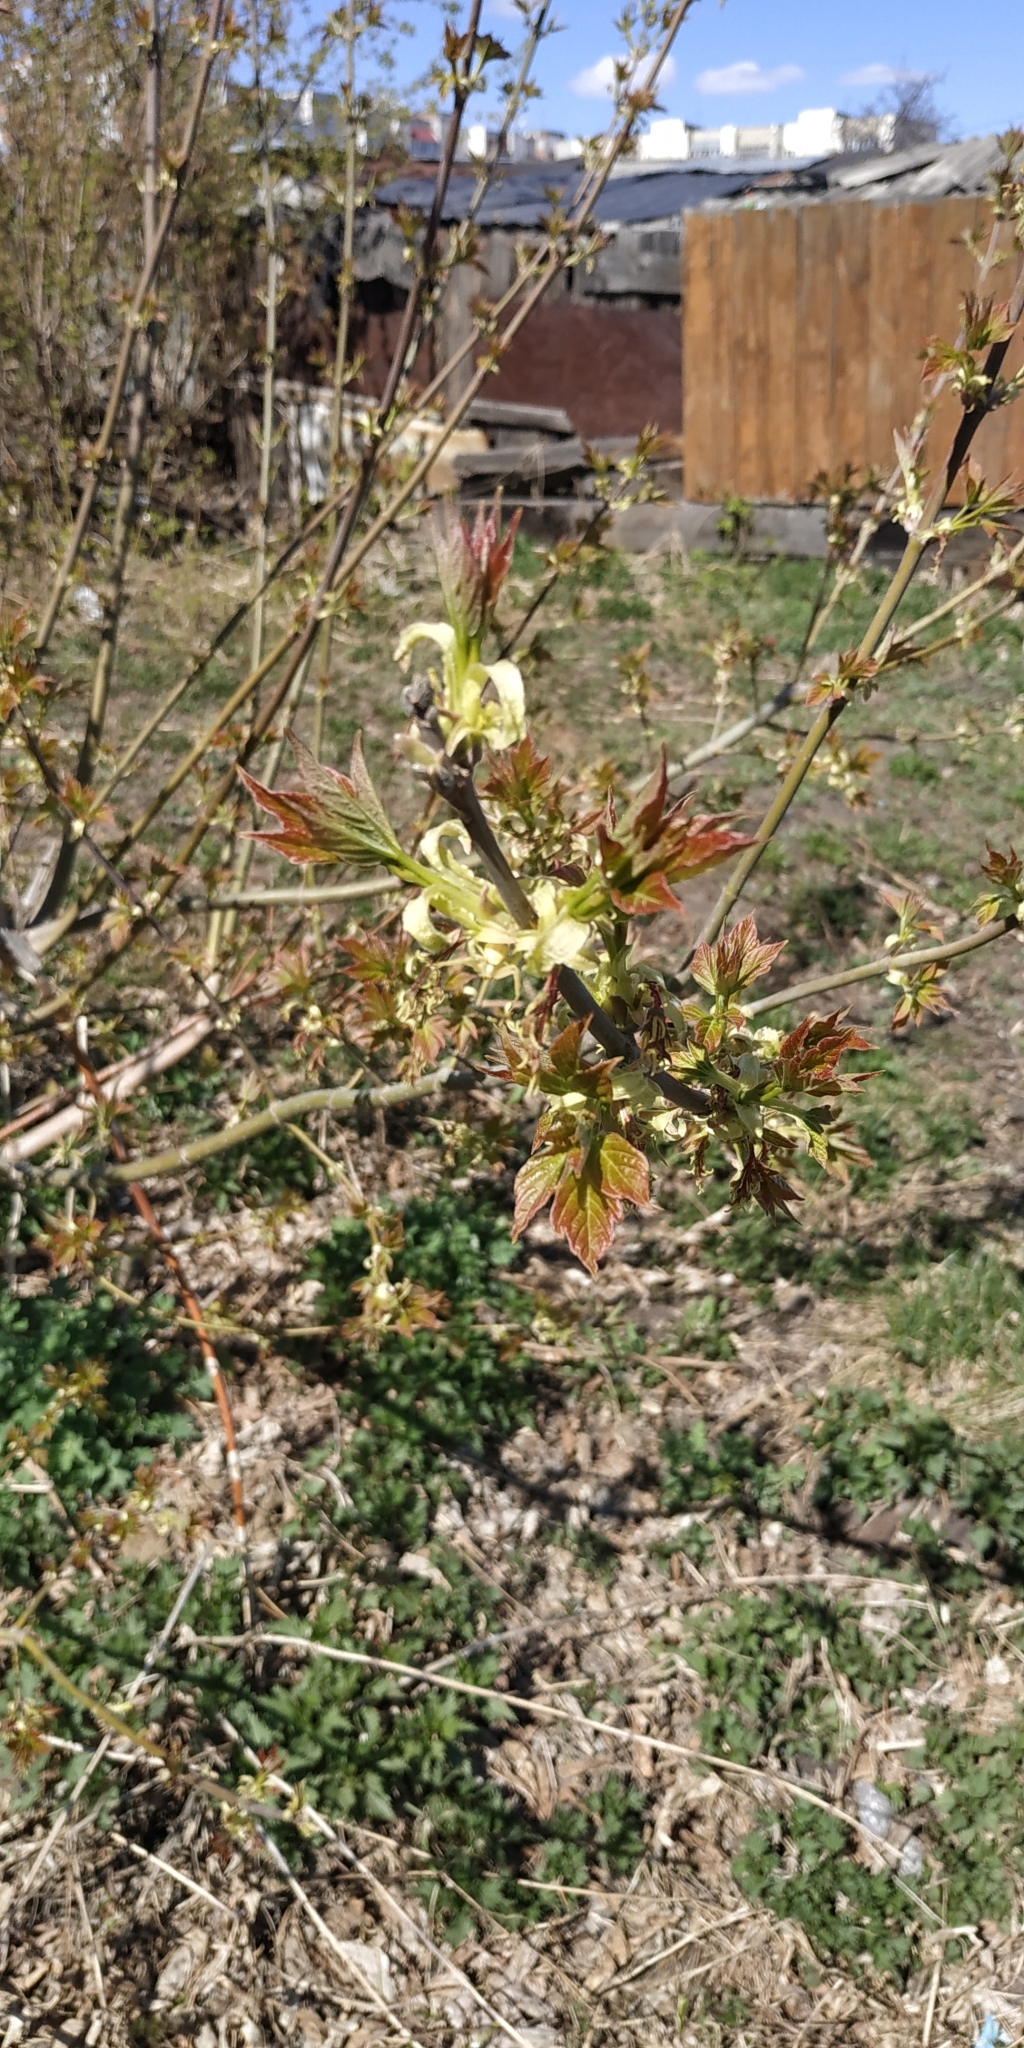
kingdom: Plantae
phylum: Tracheophyta
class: Magnoliopsida
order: Sapindales
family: Sapindaceae
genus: Acer
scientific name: Acer negundo
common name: Ashleaf maple
